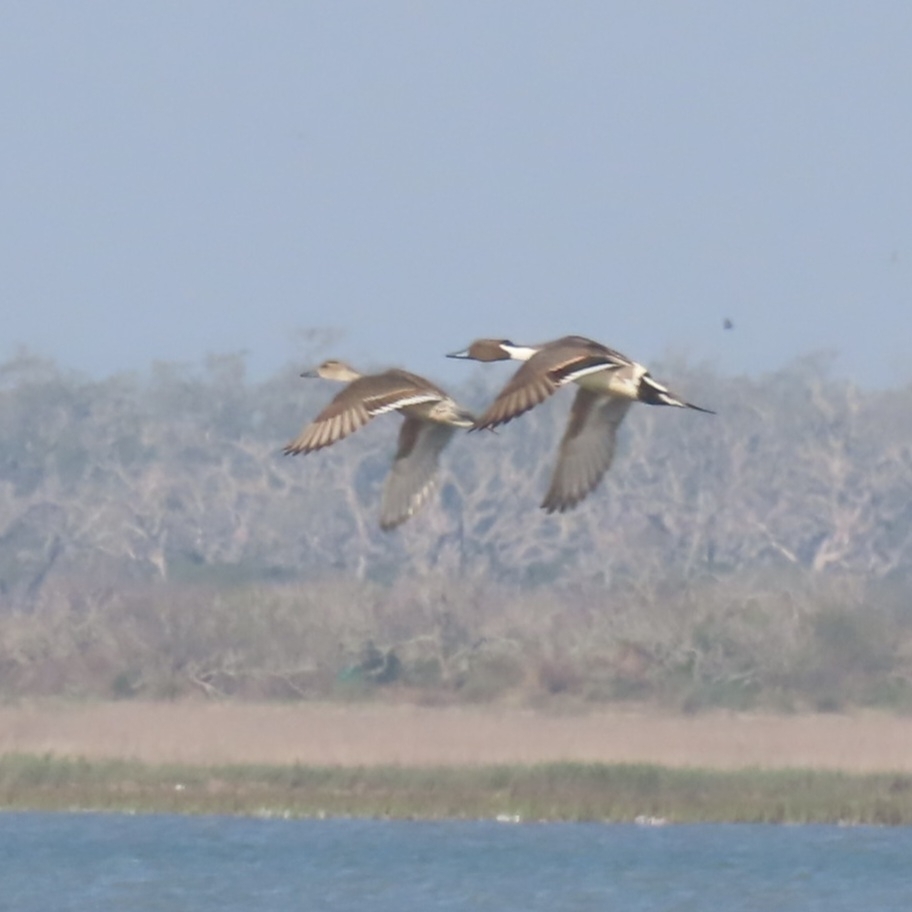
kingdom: Animalia
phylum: Chordata
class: Aves
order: Anseriformes
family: Anatidae
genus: Anas
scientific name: Anas acuta
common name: Northern pintail
